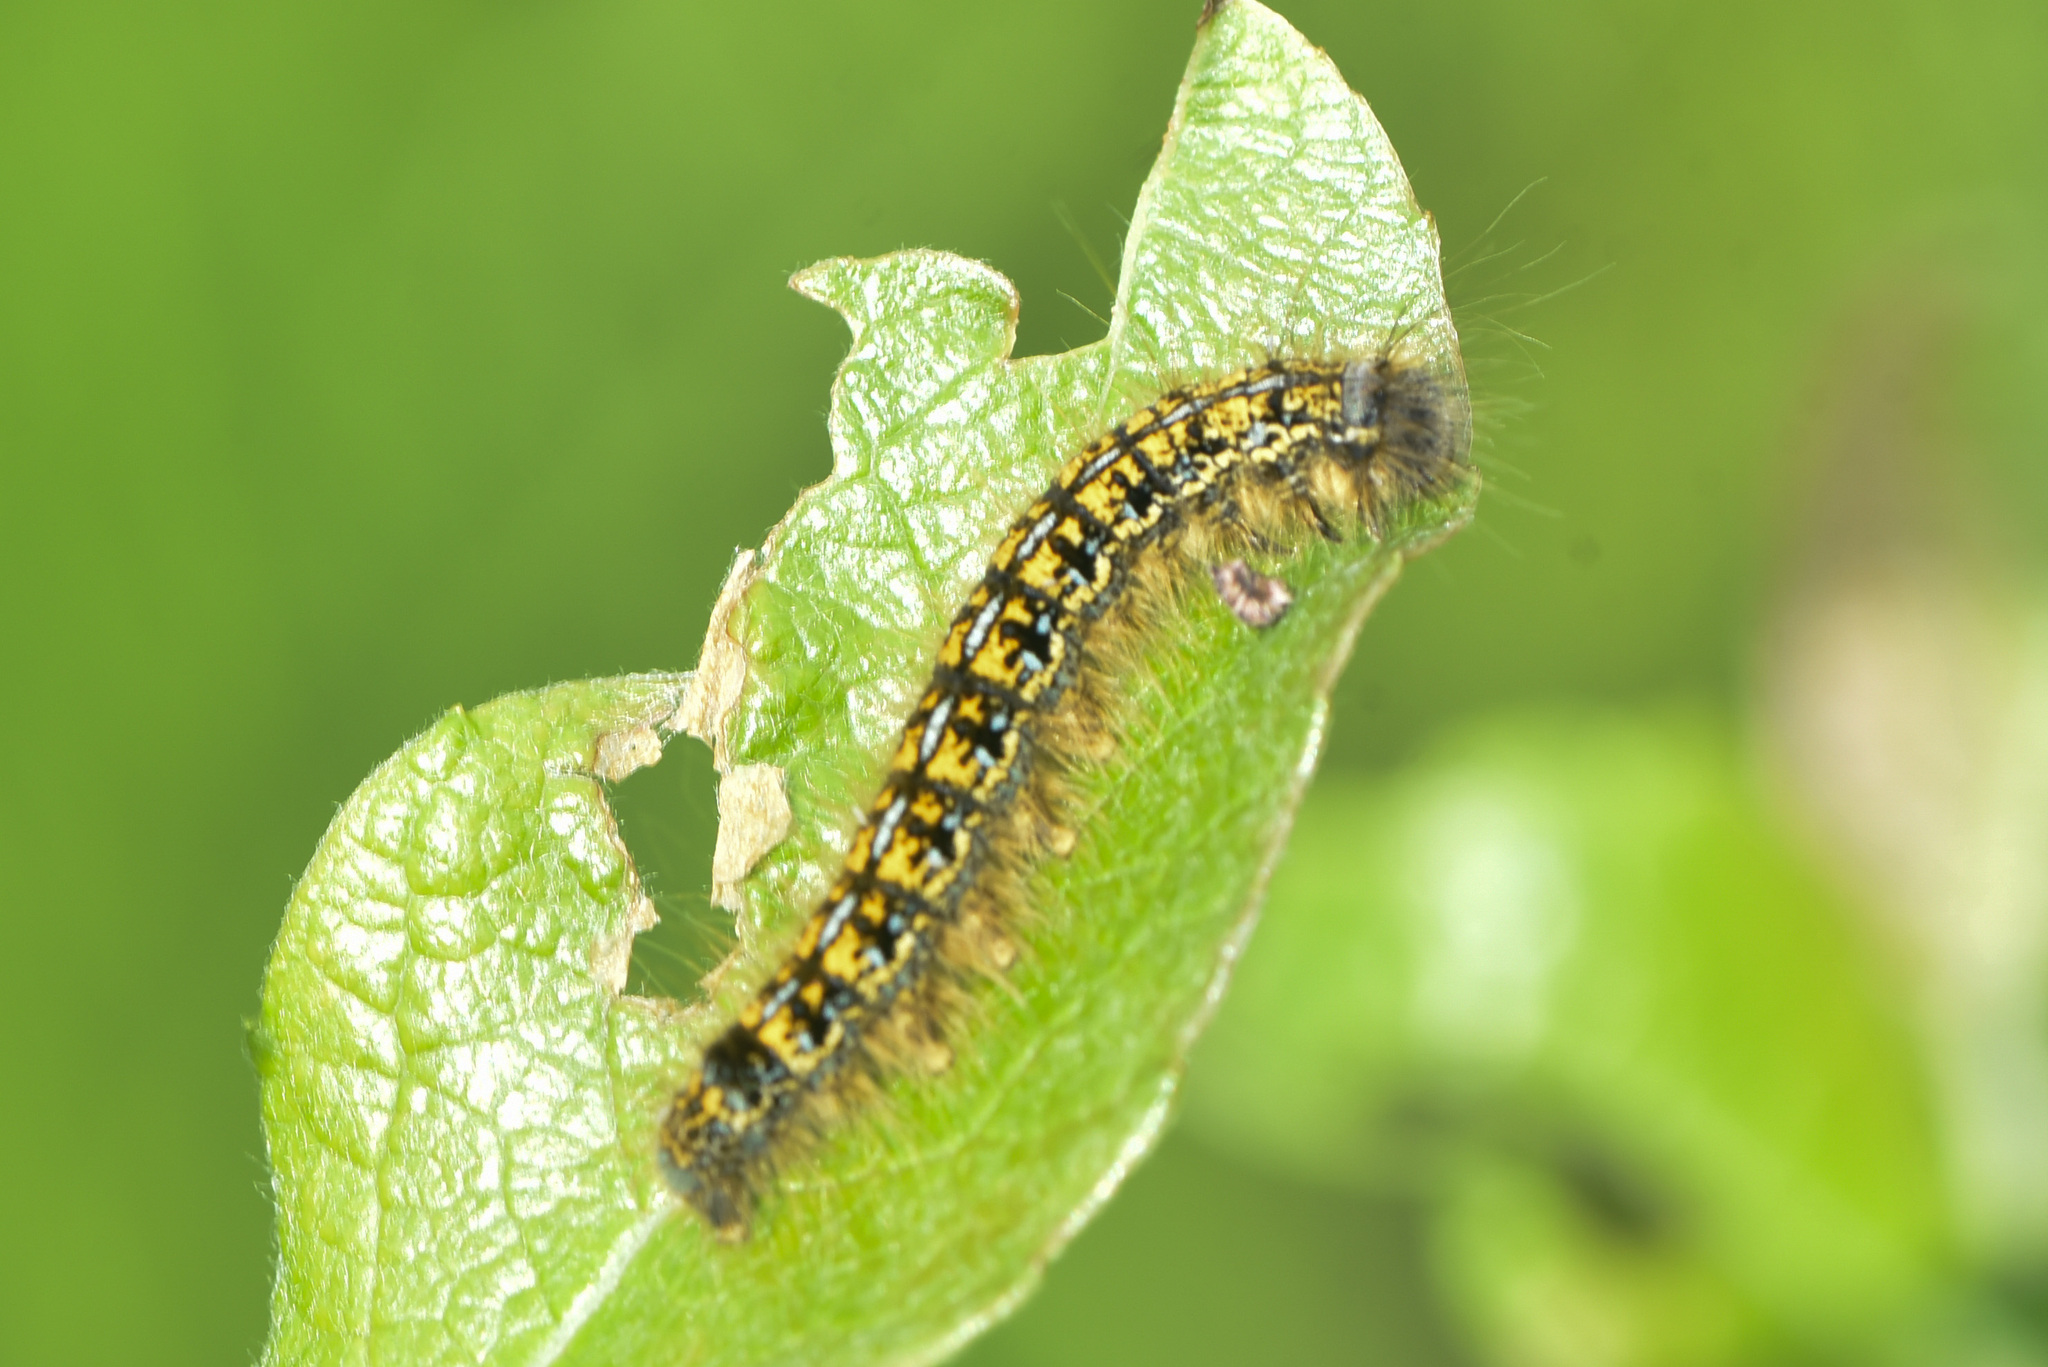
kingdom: Animalia
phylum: Arthropoda
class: Insecta
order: Lepidoptera
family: Lasiocampidae
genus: Malacosoma
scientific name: Malacosoma californica
